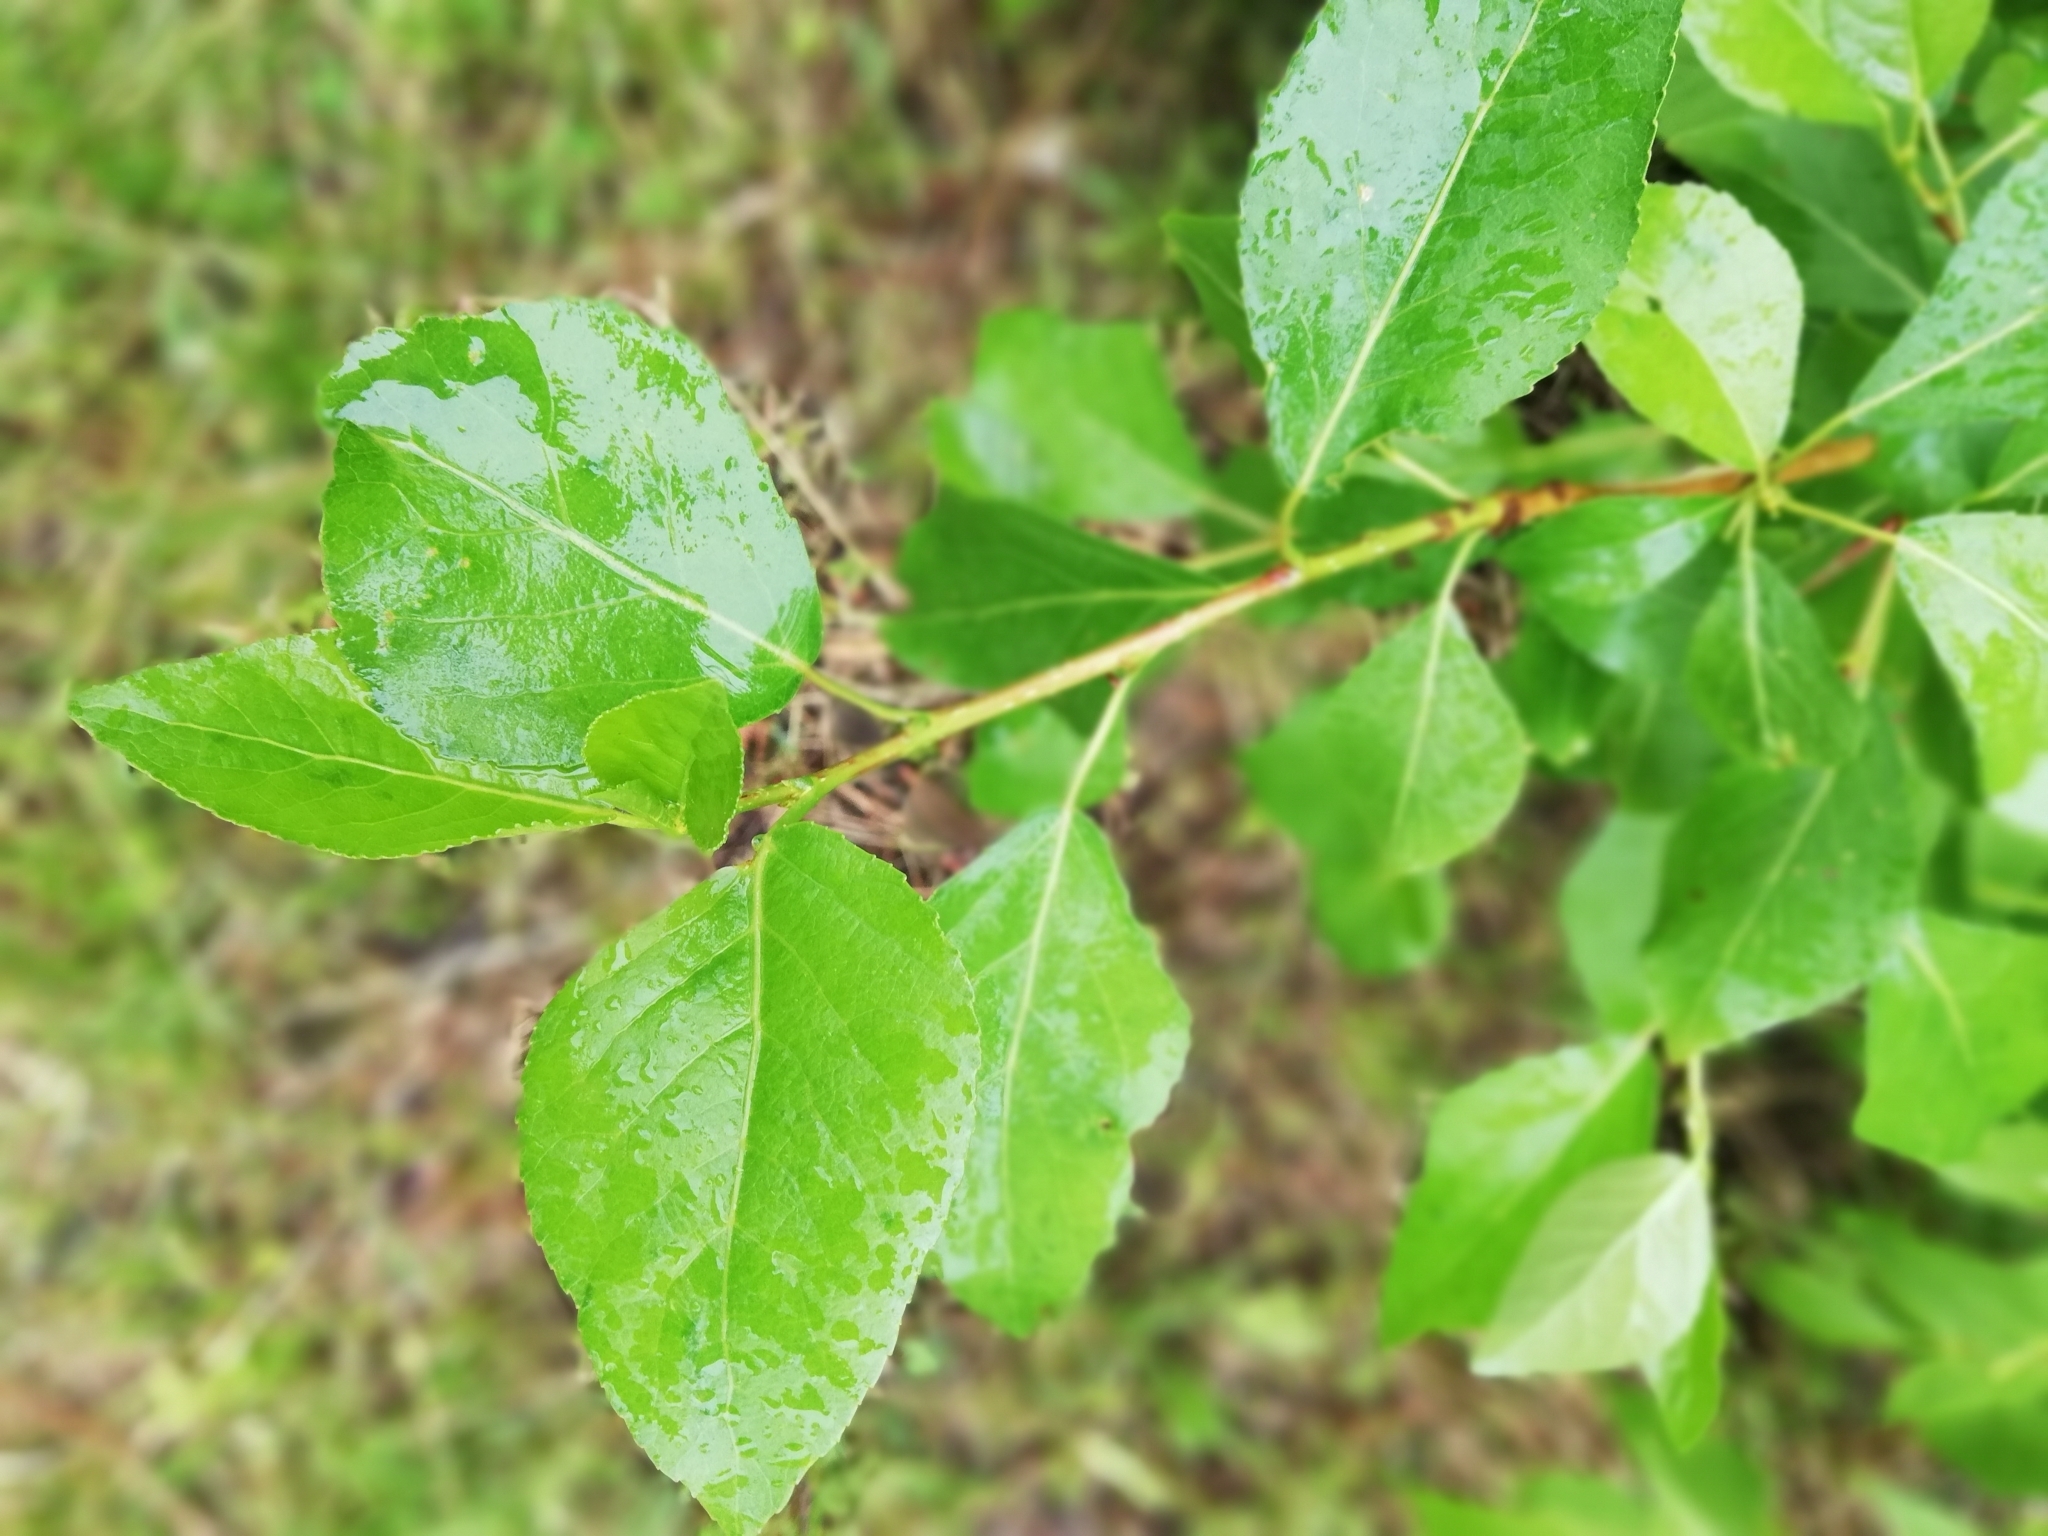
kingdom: Plantae
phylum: Tracheophyta
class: Magnoliopsida
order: Malpighiales
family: Salicaceae
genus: Populus
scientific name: Populus
